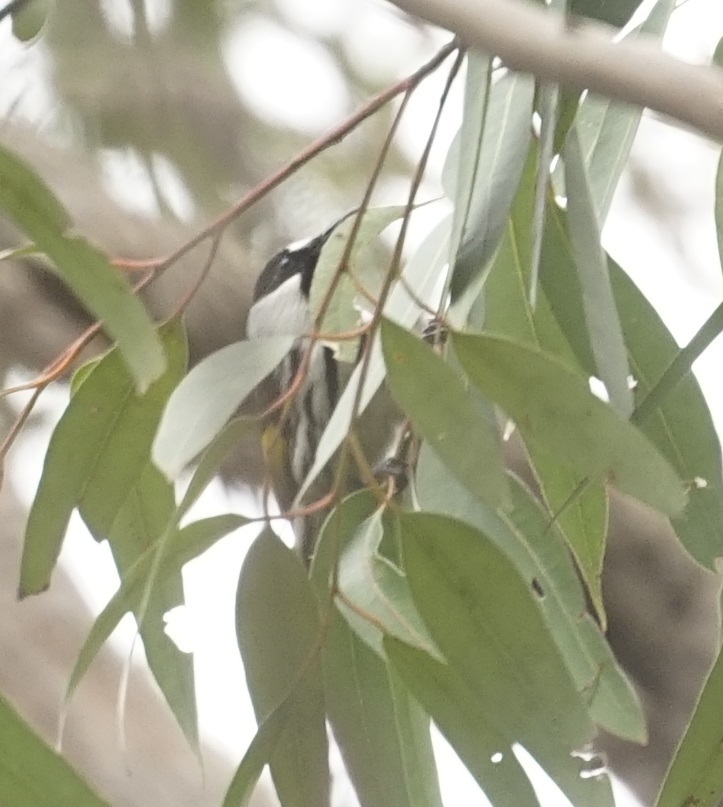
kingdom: Animalia
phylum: Chordata
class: Aves
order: Passeriformes
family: Meliphagidae
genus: Phylidonyris
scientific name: Phylidonyris niger
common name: White-cheeked honeyeater
